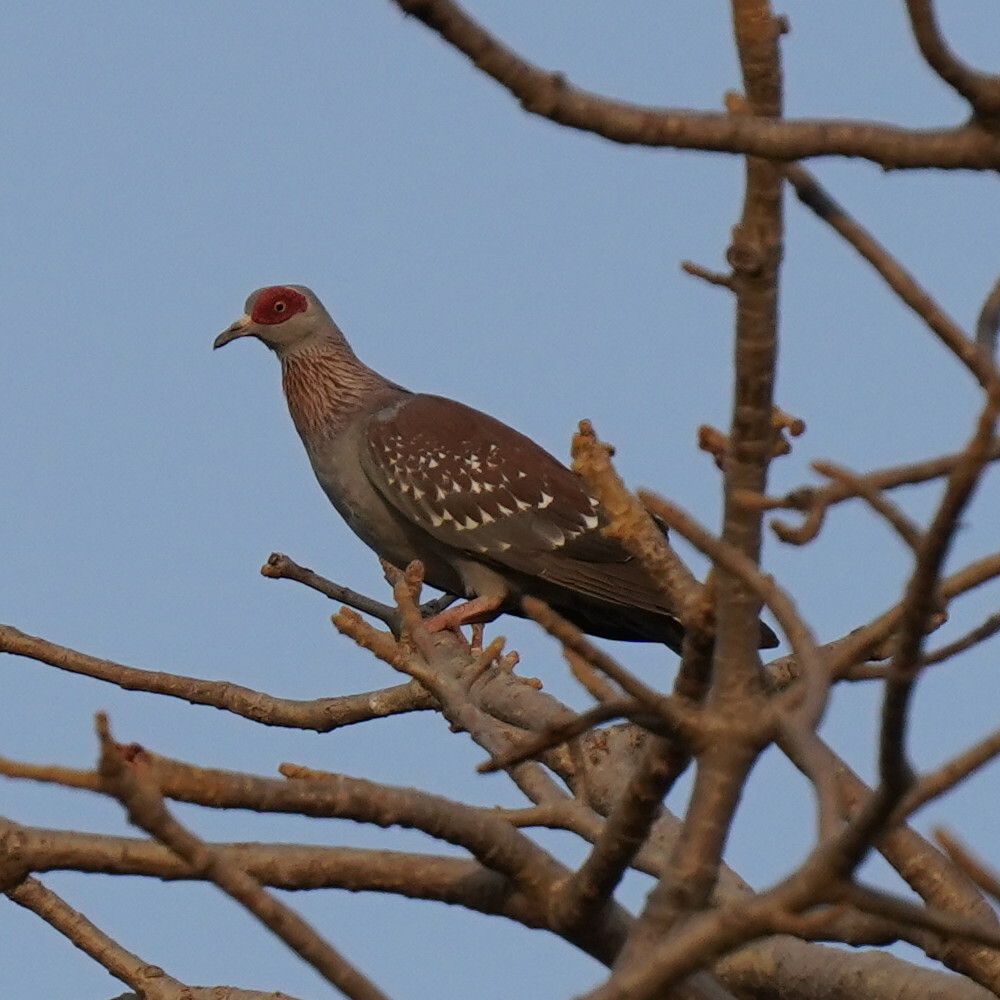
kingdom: Animalia
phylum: Chordata
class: Aves
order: Columbiformes
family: Columbidae
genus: Columba
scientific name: Columba guinea
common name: Speckled pigeon
